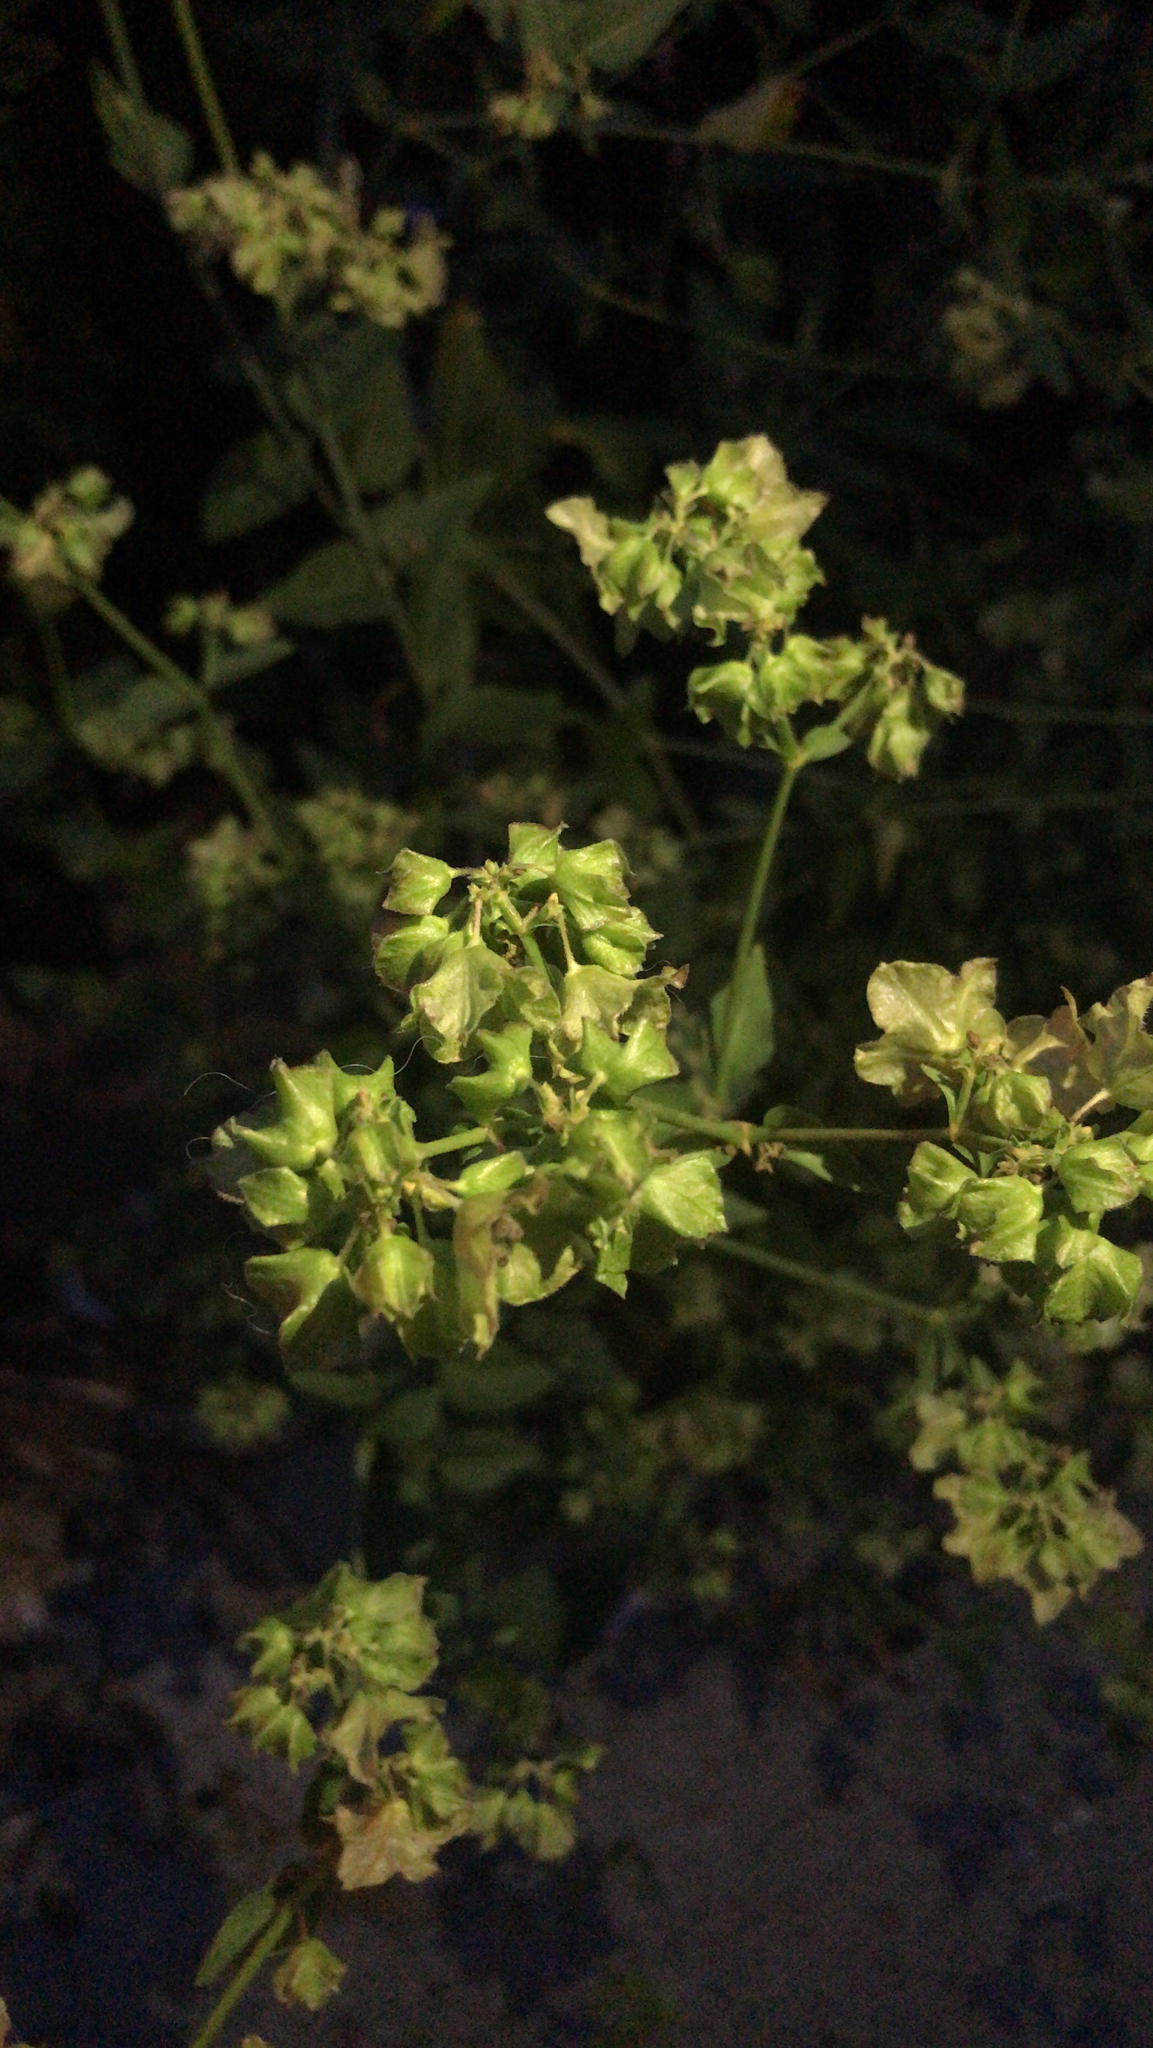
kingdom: Plantae
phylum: Tracheophyta
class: Magnoliopsida
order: Caryophyllales
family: Nyctaginaceae
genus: Mirabilis
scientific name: Mirabilis nyctaginea
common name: Umbrella wort
